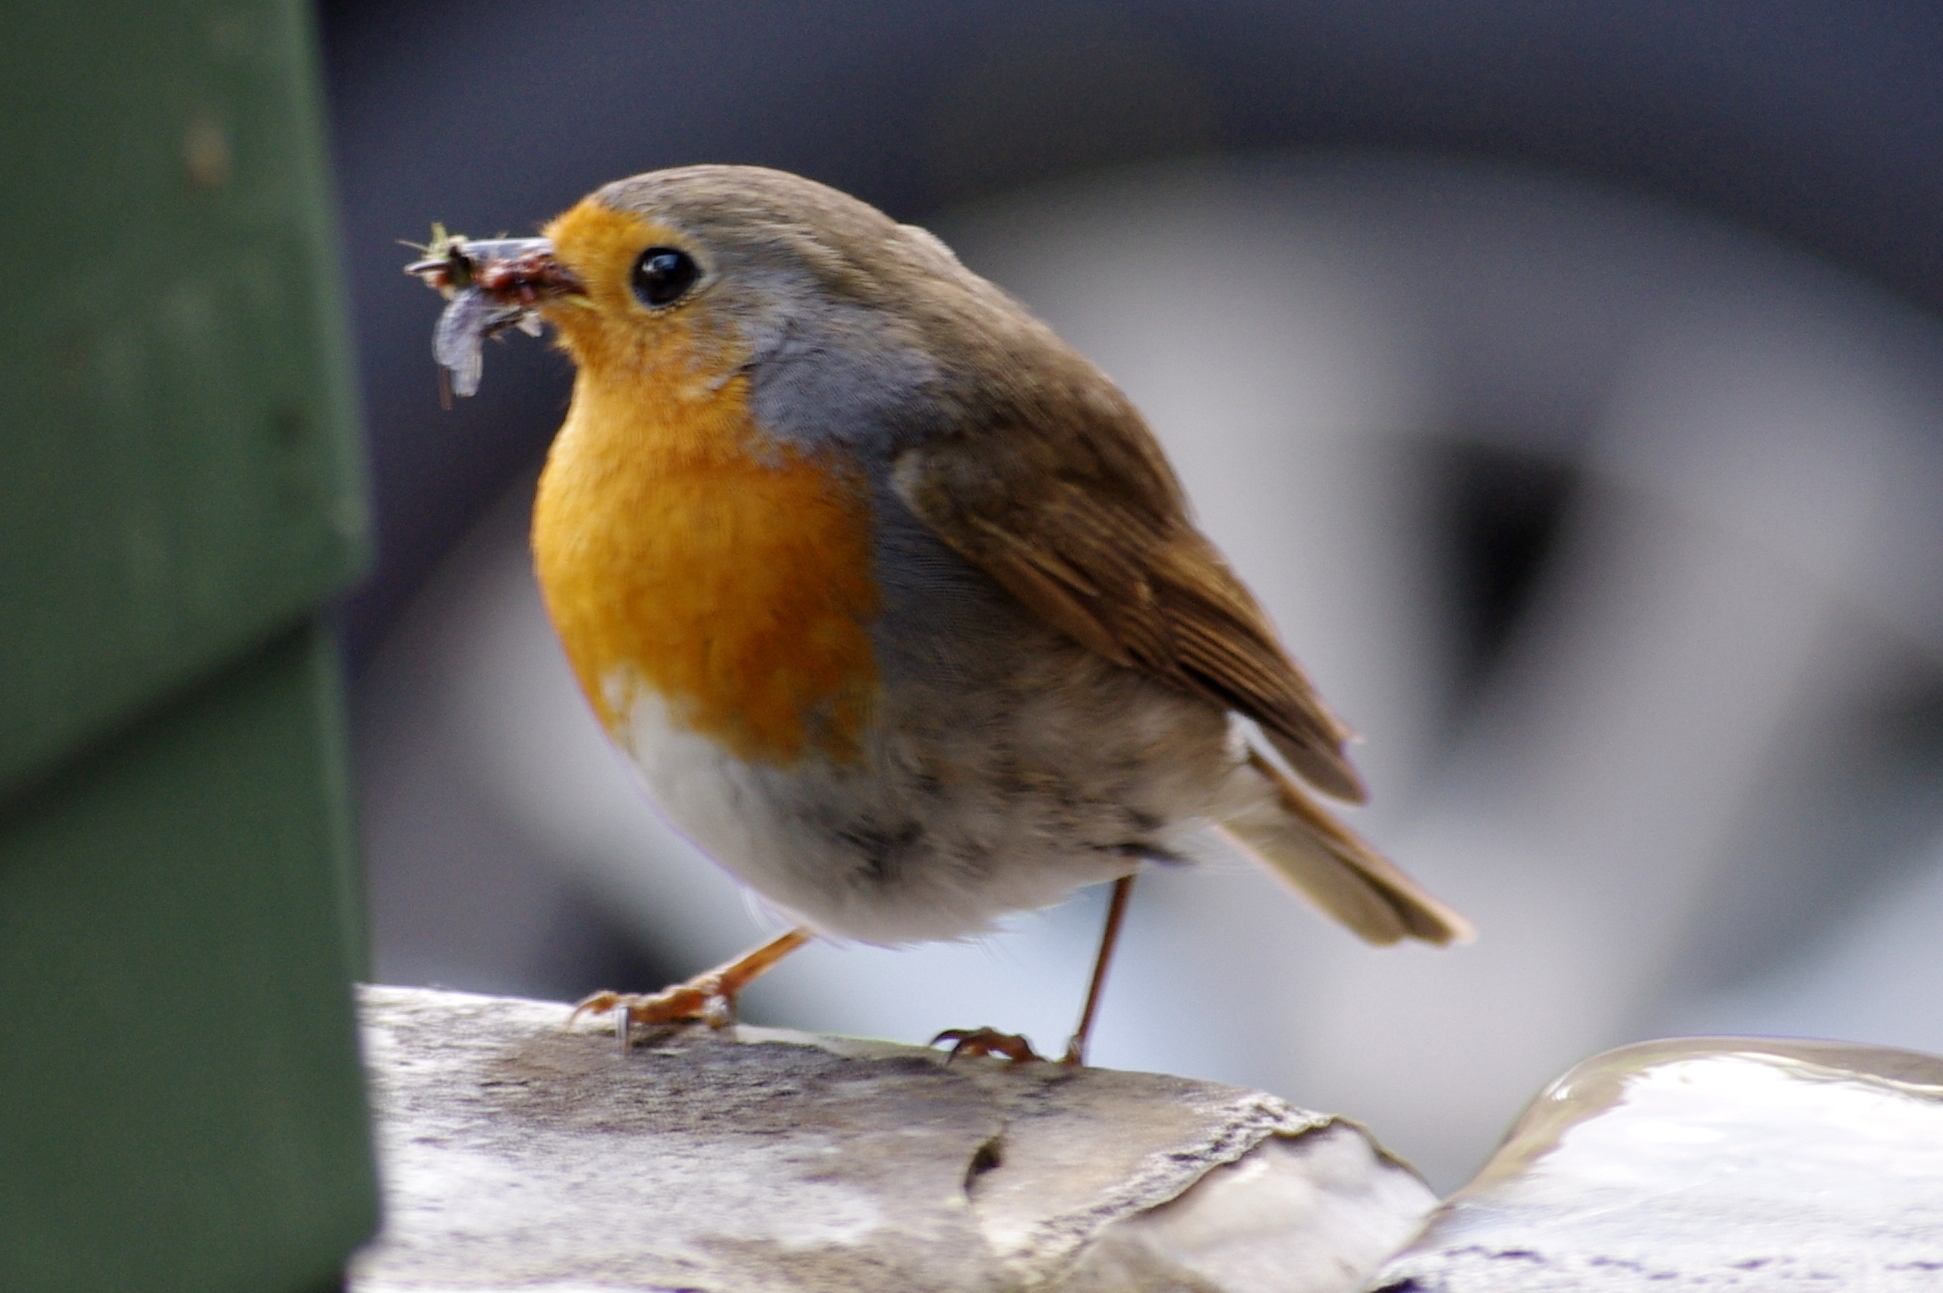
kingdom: Animalia
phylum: Chordata
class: Aves
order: Passeriformes
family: Muscicapidae
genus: Erithacus
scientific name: Erithacus rubecula
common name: European robin
